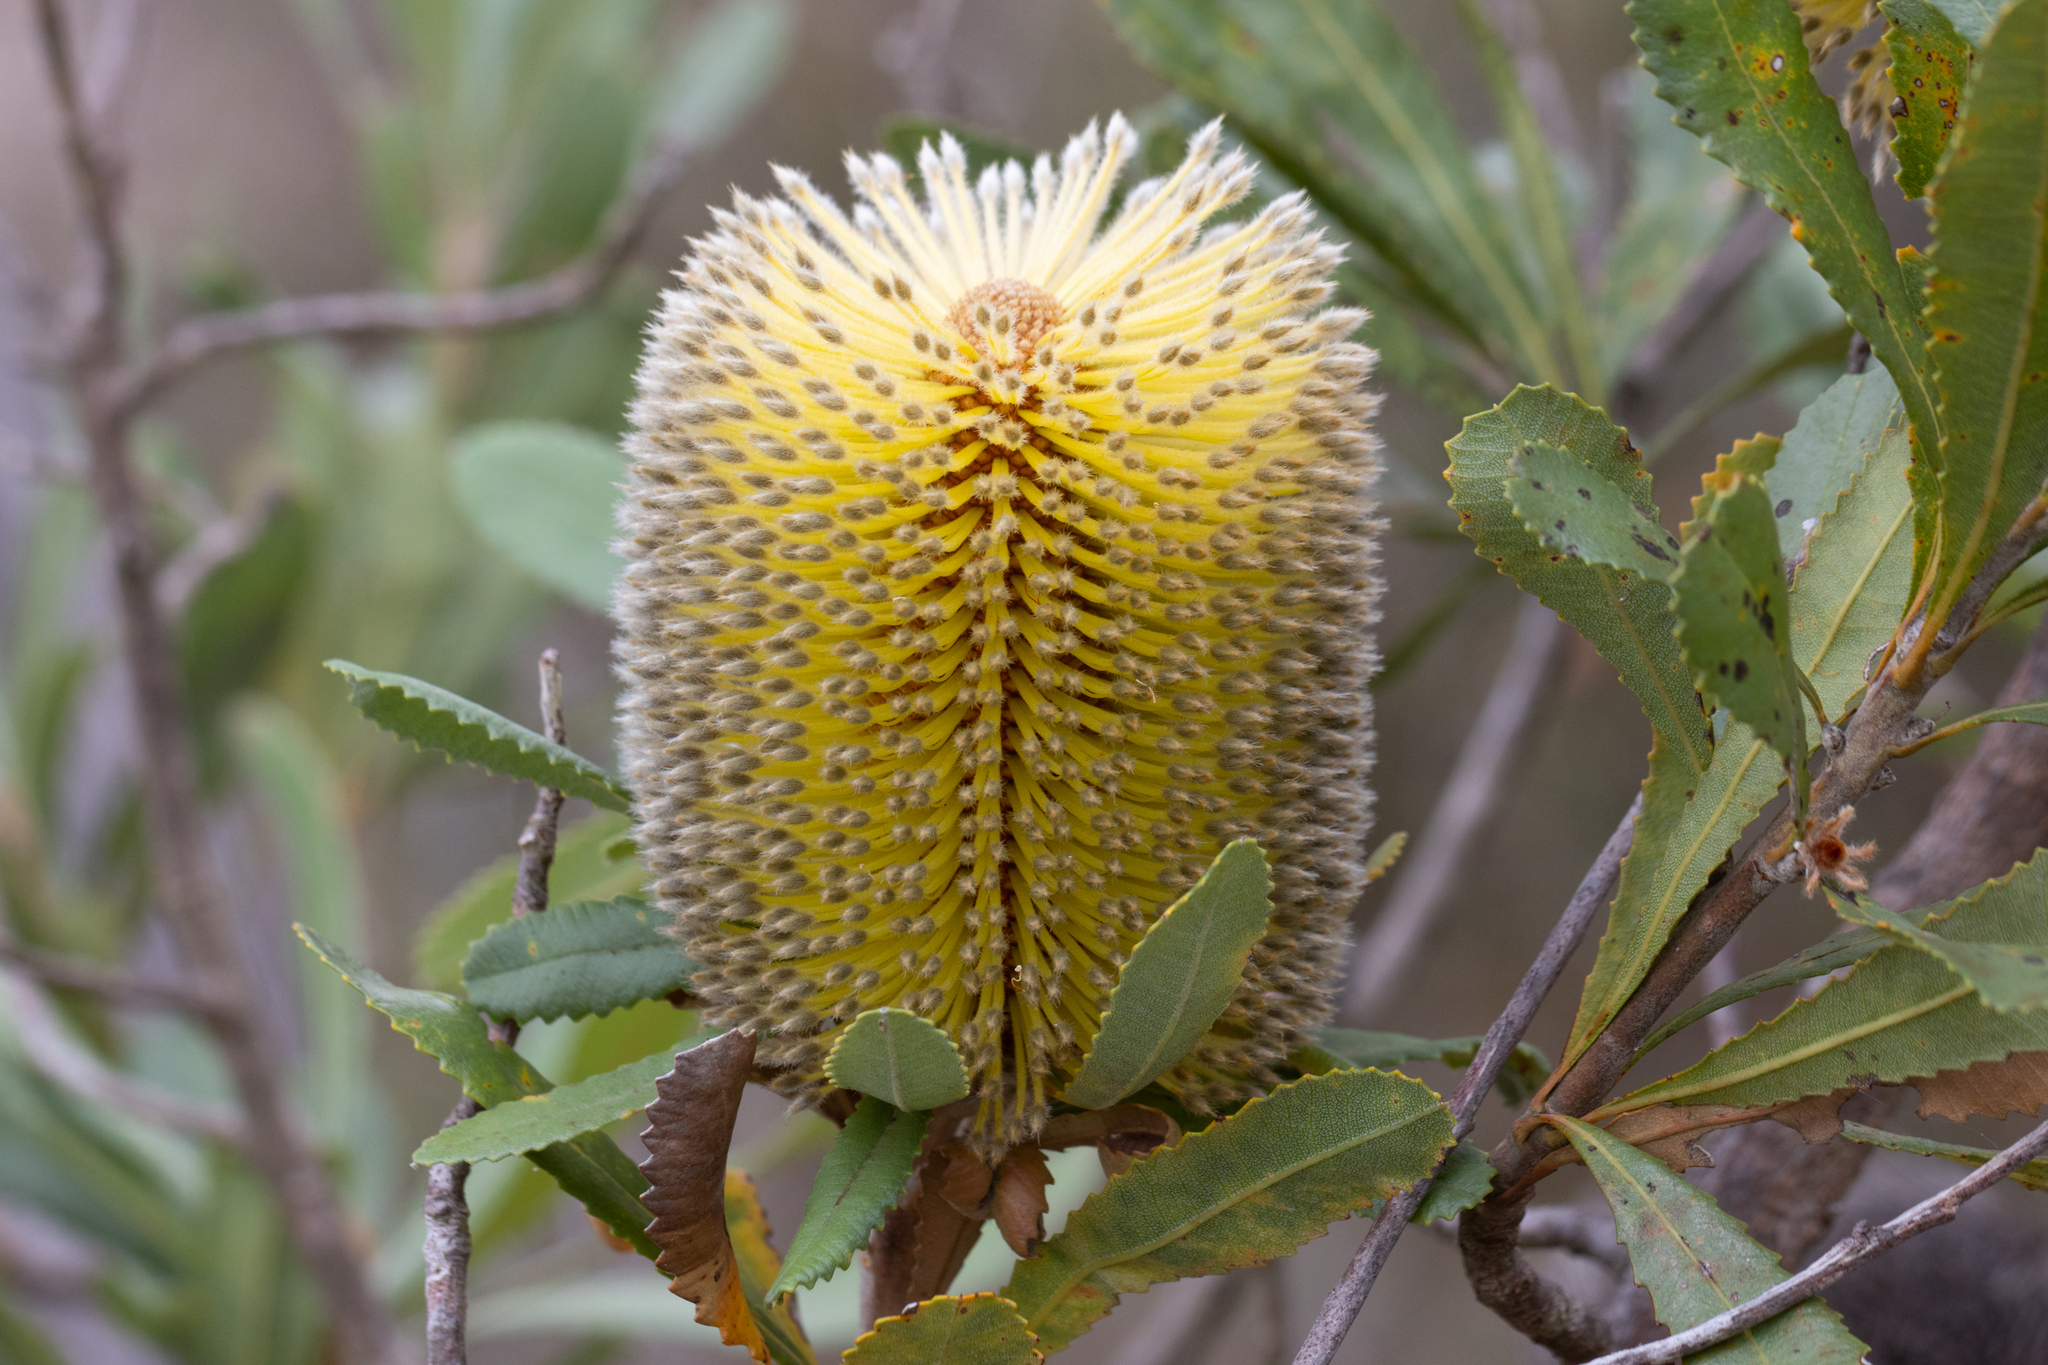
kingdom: Plantae
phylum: Tracheophyta
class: Magnoliopsida
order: Proteales
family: Proteaceae
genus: Banksia
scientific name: Banksia ornata
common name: Desert banksia
